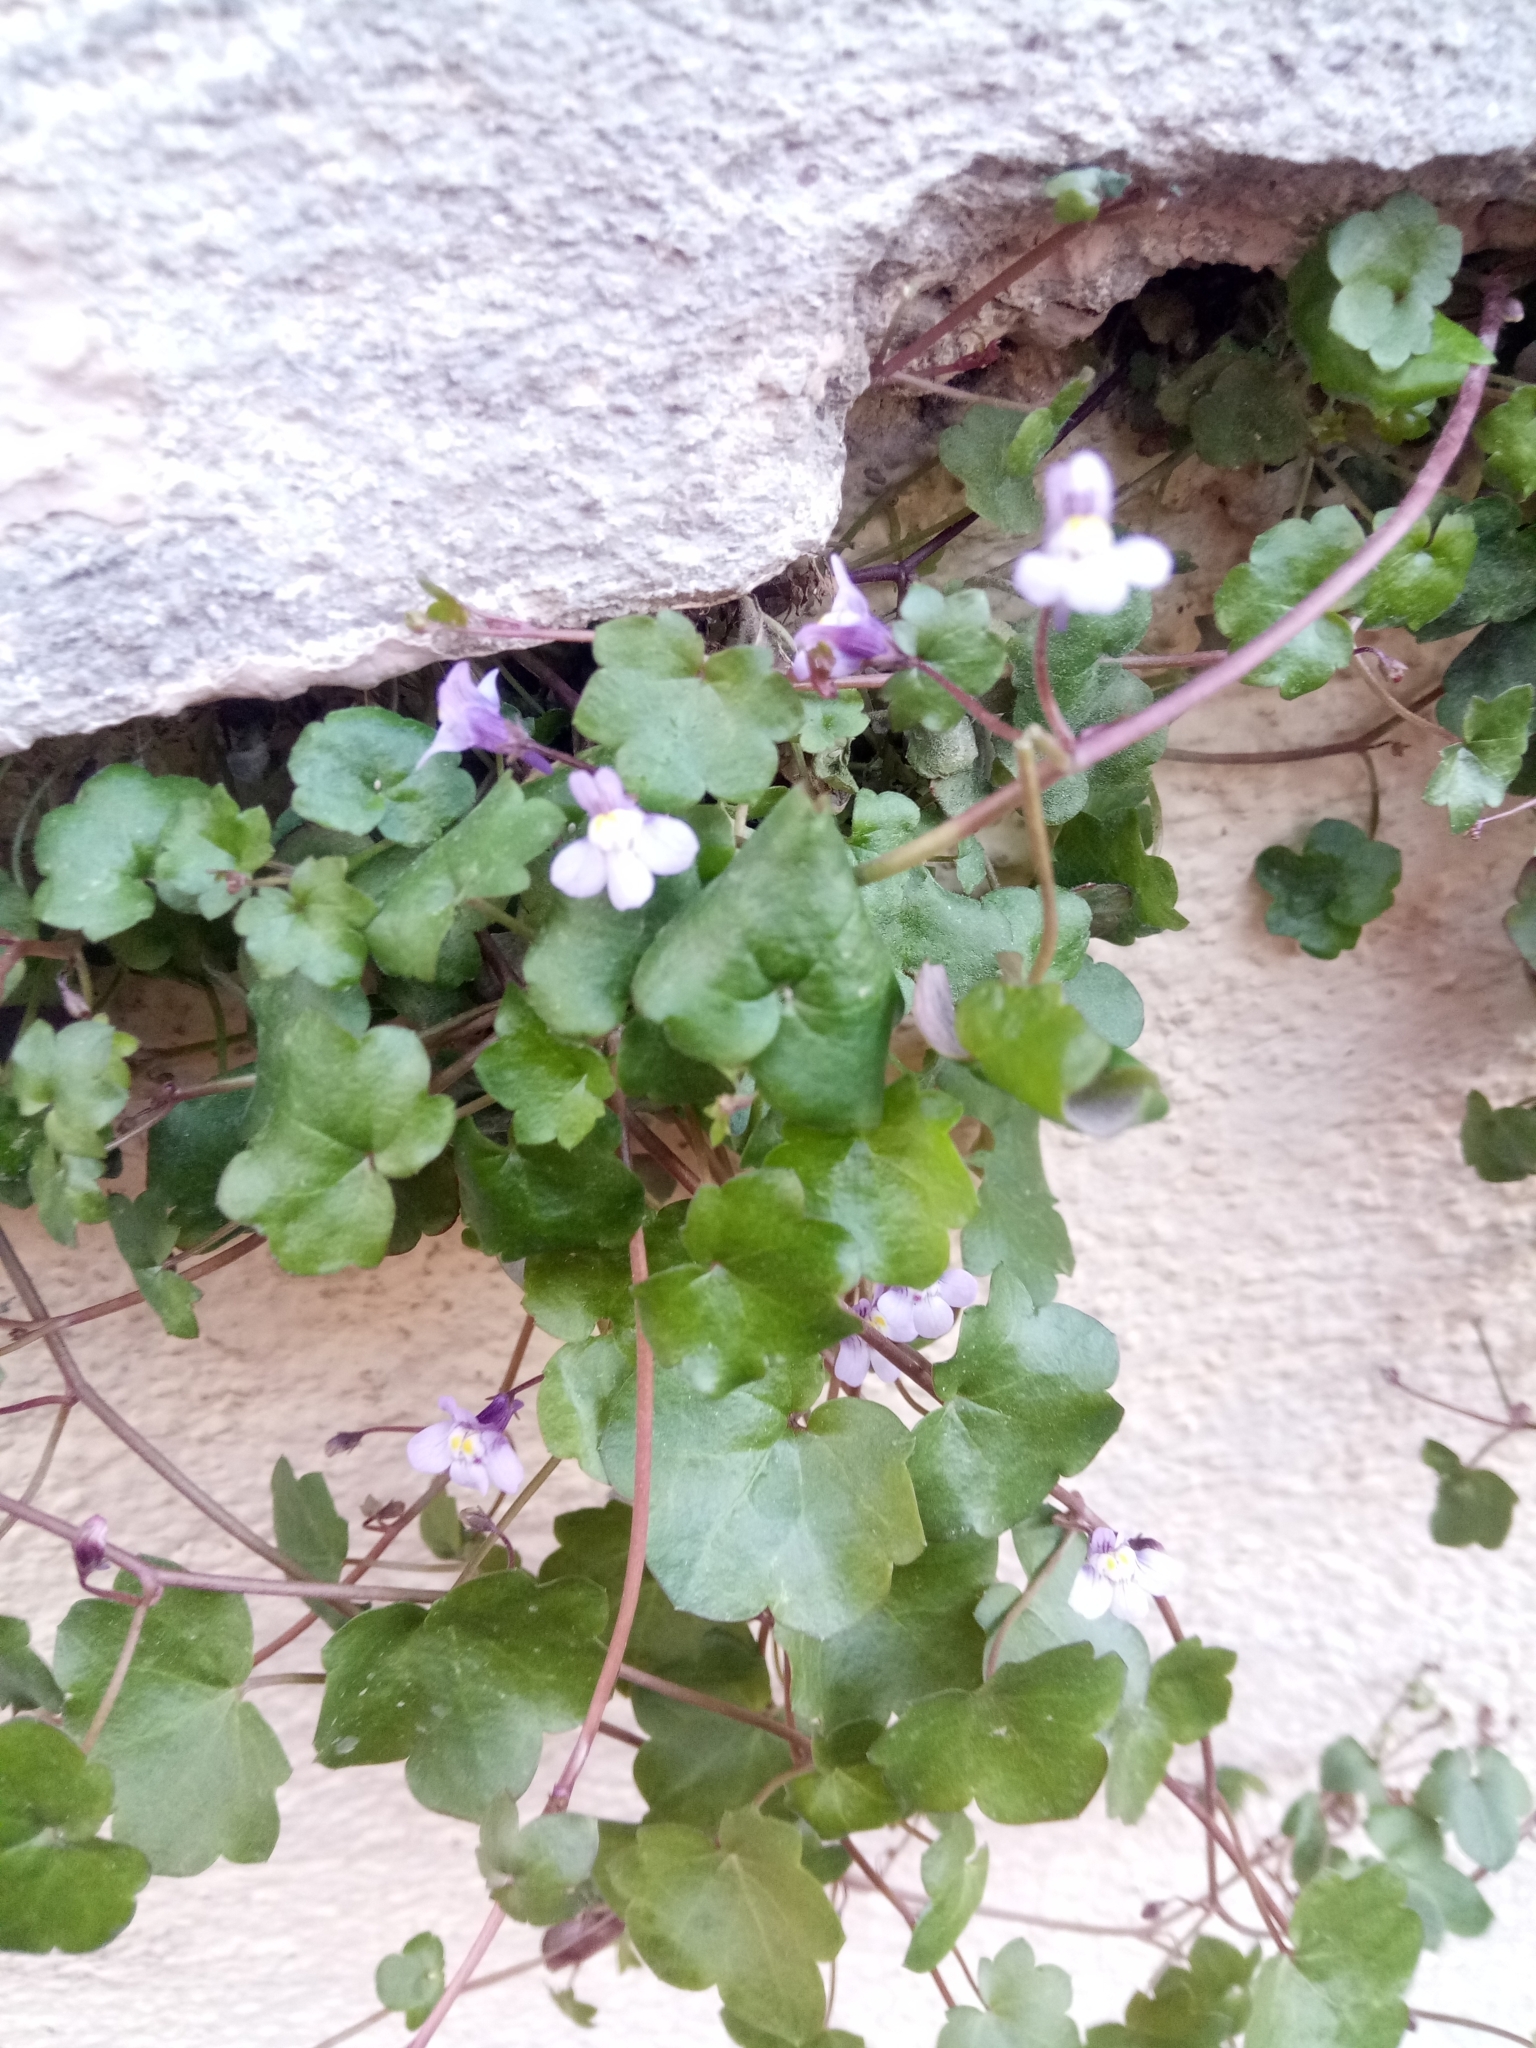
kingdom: Plantae
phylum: Tracheophyta
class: Magnoliopsida
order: Lamiales
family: Plantaginaceae
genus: Cymbalaria
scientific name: Cymbalaria muralis
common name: Ivy-leaved toadflax
